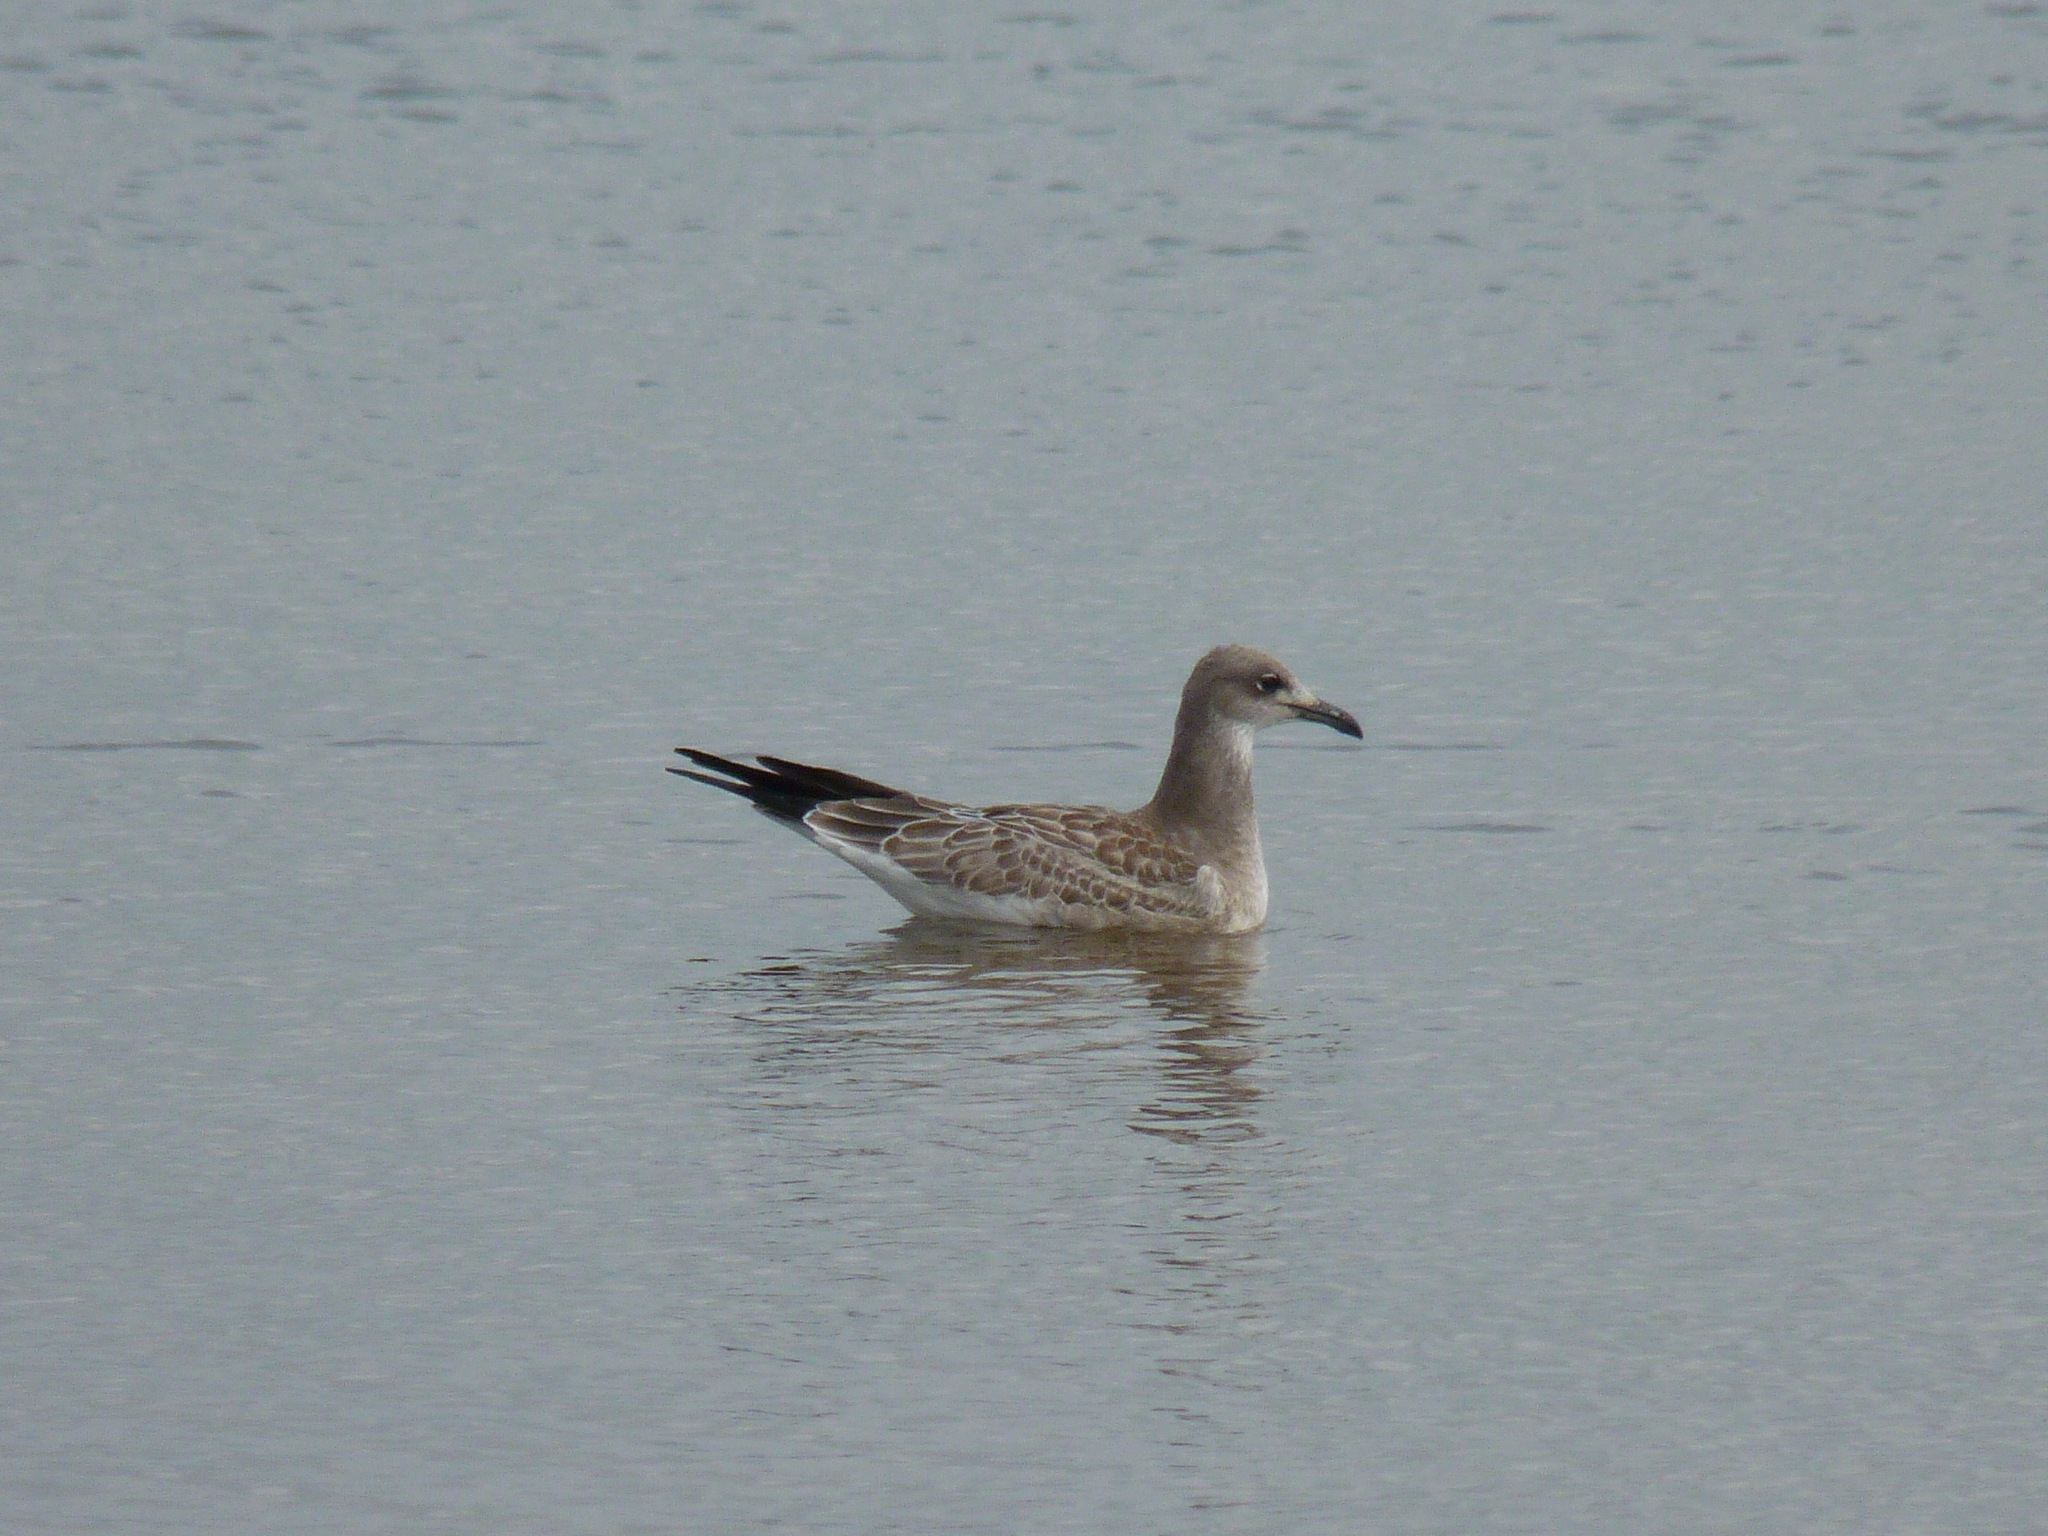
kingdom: Animalia
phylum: Chordata
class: Aves
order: Charadriiformes
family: Laridae
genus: Leucophaeus
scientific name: Leucophaeus atricilla
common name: Laughing gull
